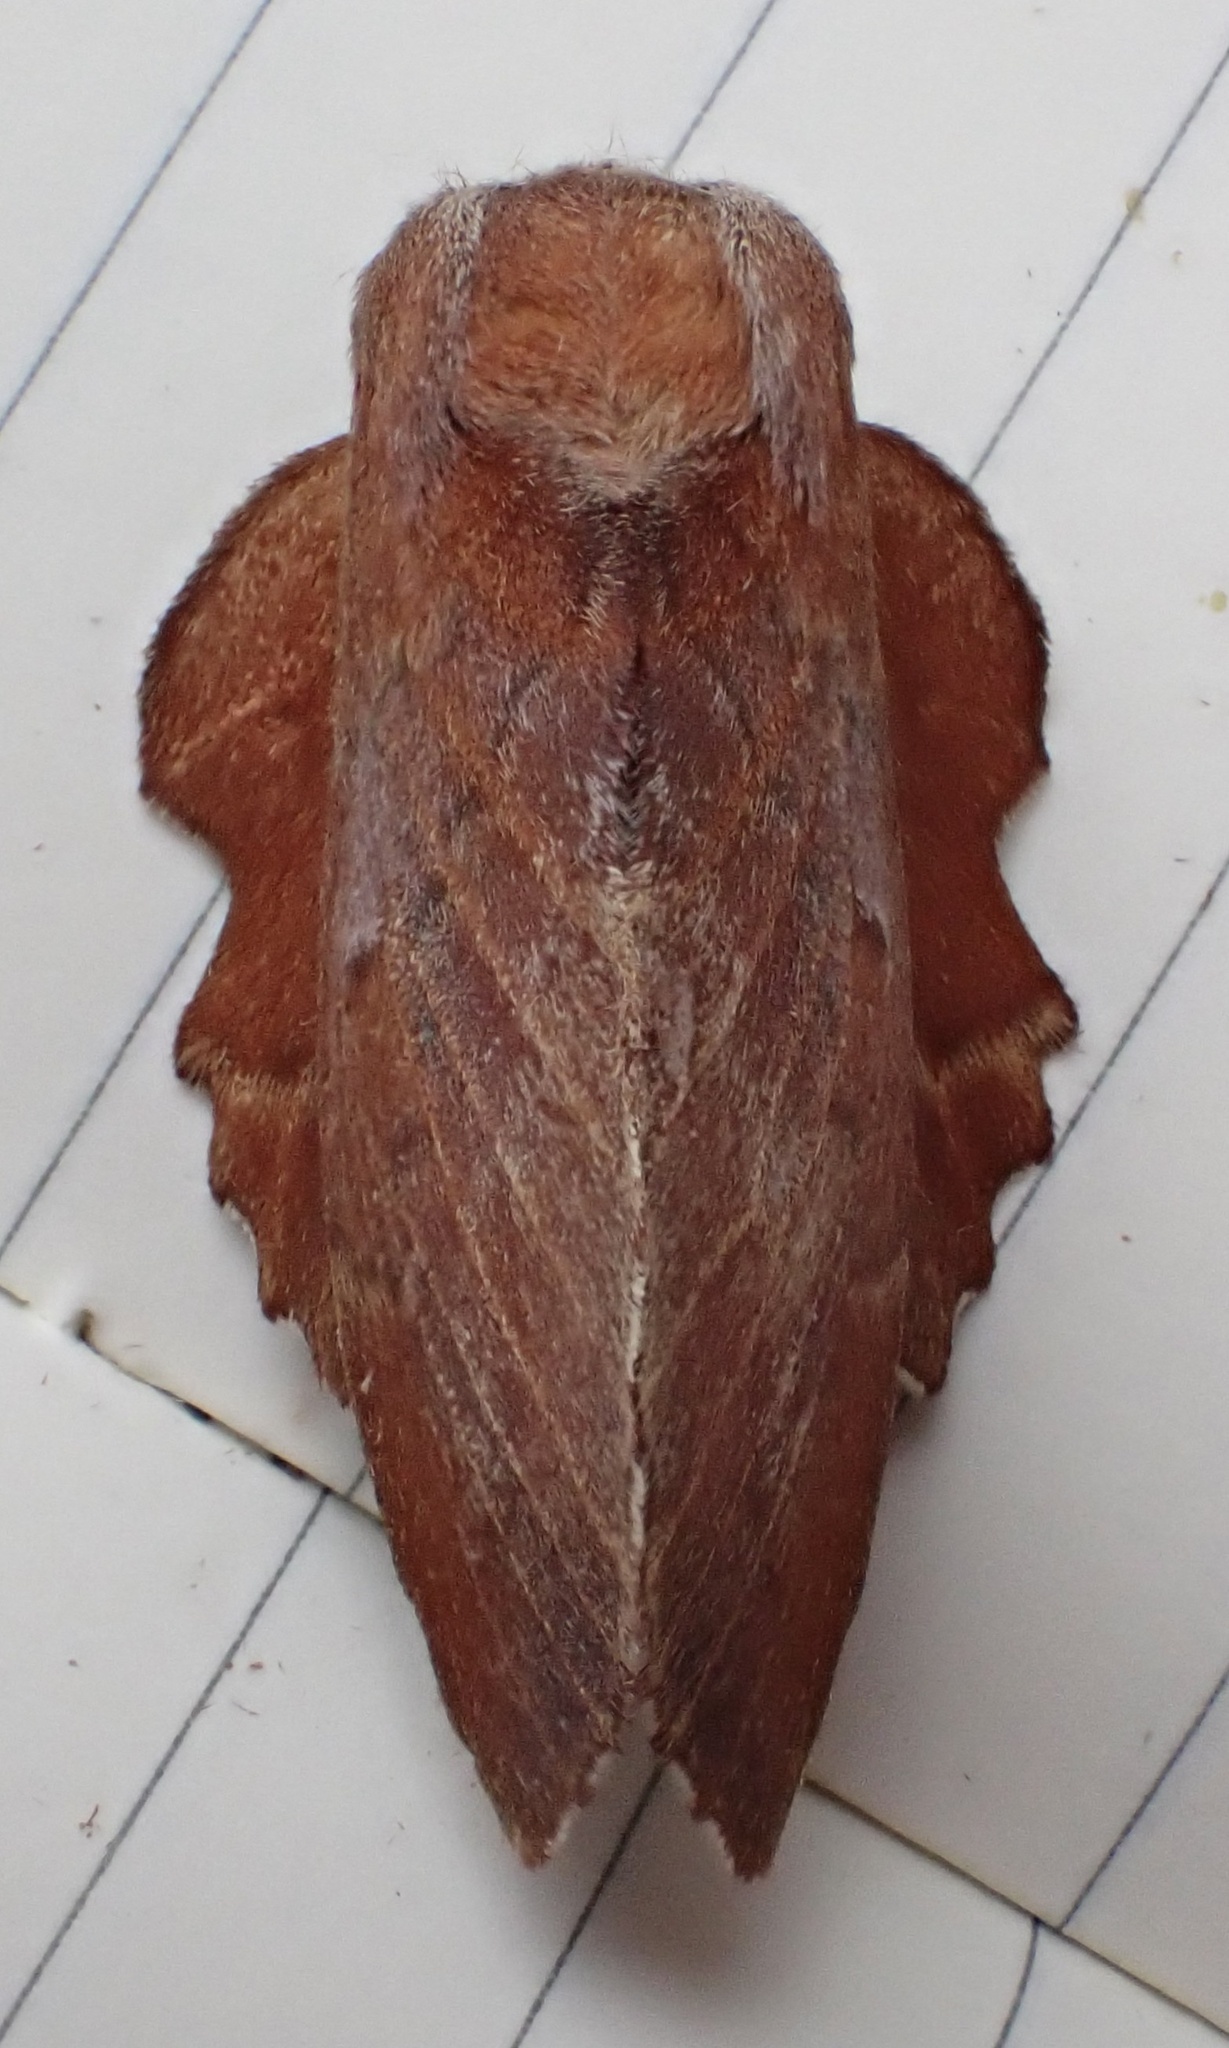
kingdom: Animalia
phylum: Arthropoda
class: Insecta
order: Lepidoptera
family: Lasiocampidae
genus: Phyllodesma
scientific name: Phyllodesma americana
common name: American lappet moth
